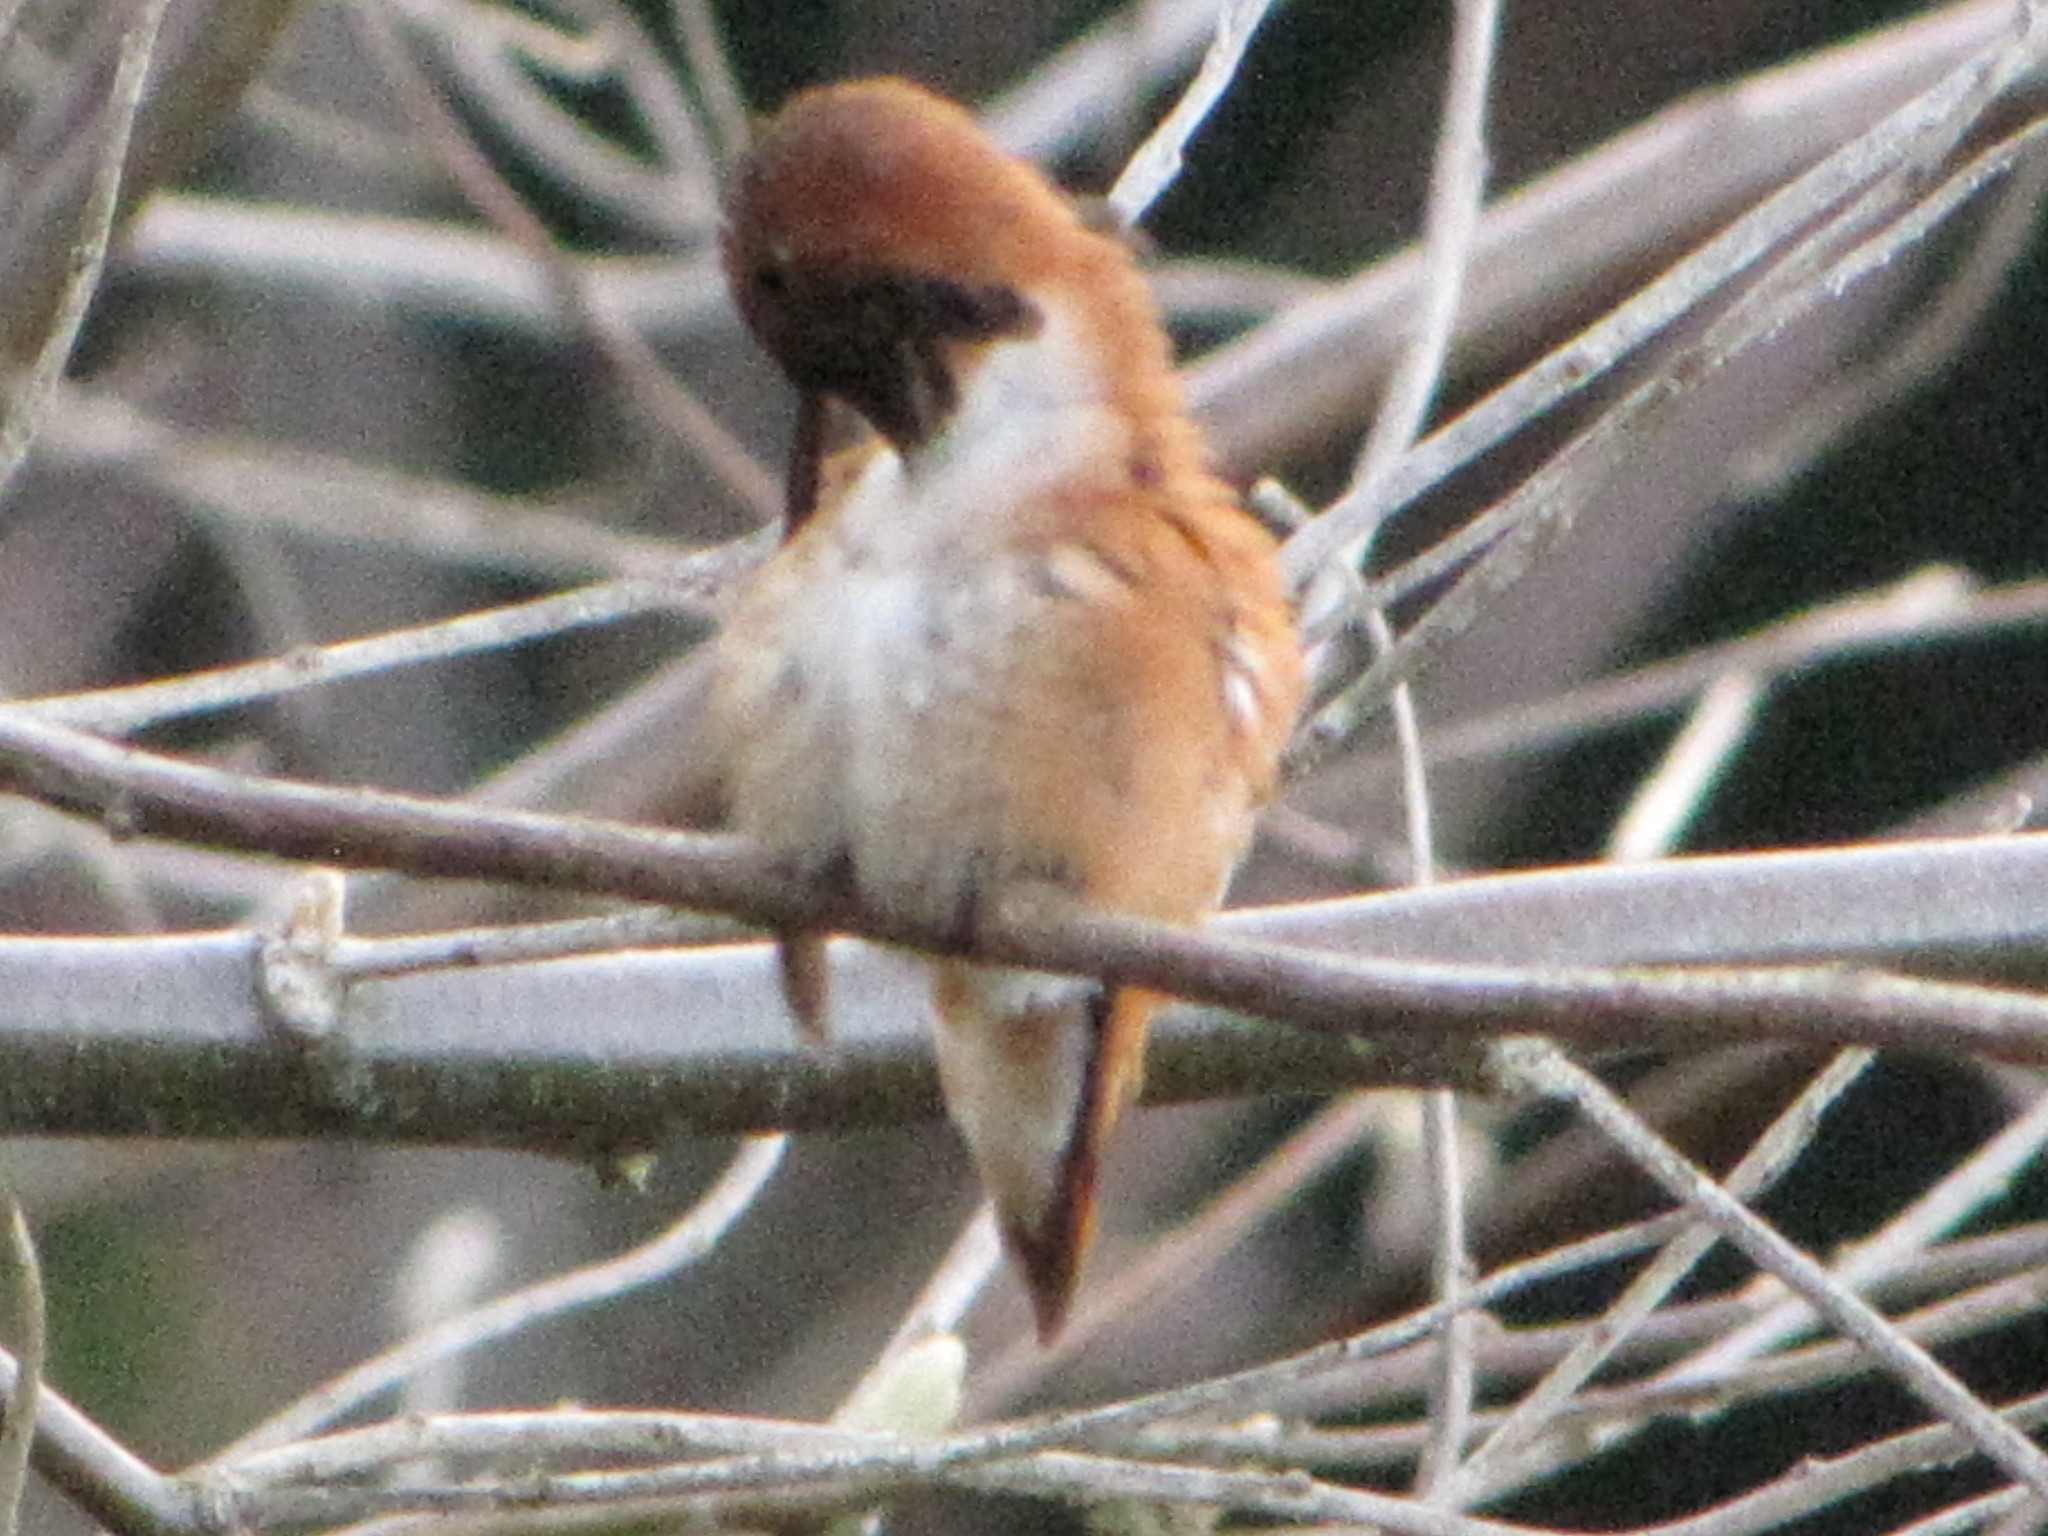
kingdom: Animalia
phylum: Chordata
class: Aves
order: Apodiformes
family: Trochilidae
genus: Selasphorus
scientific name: Selasphorus rufus
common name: Rufous hummingbird
